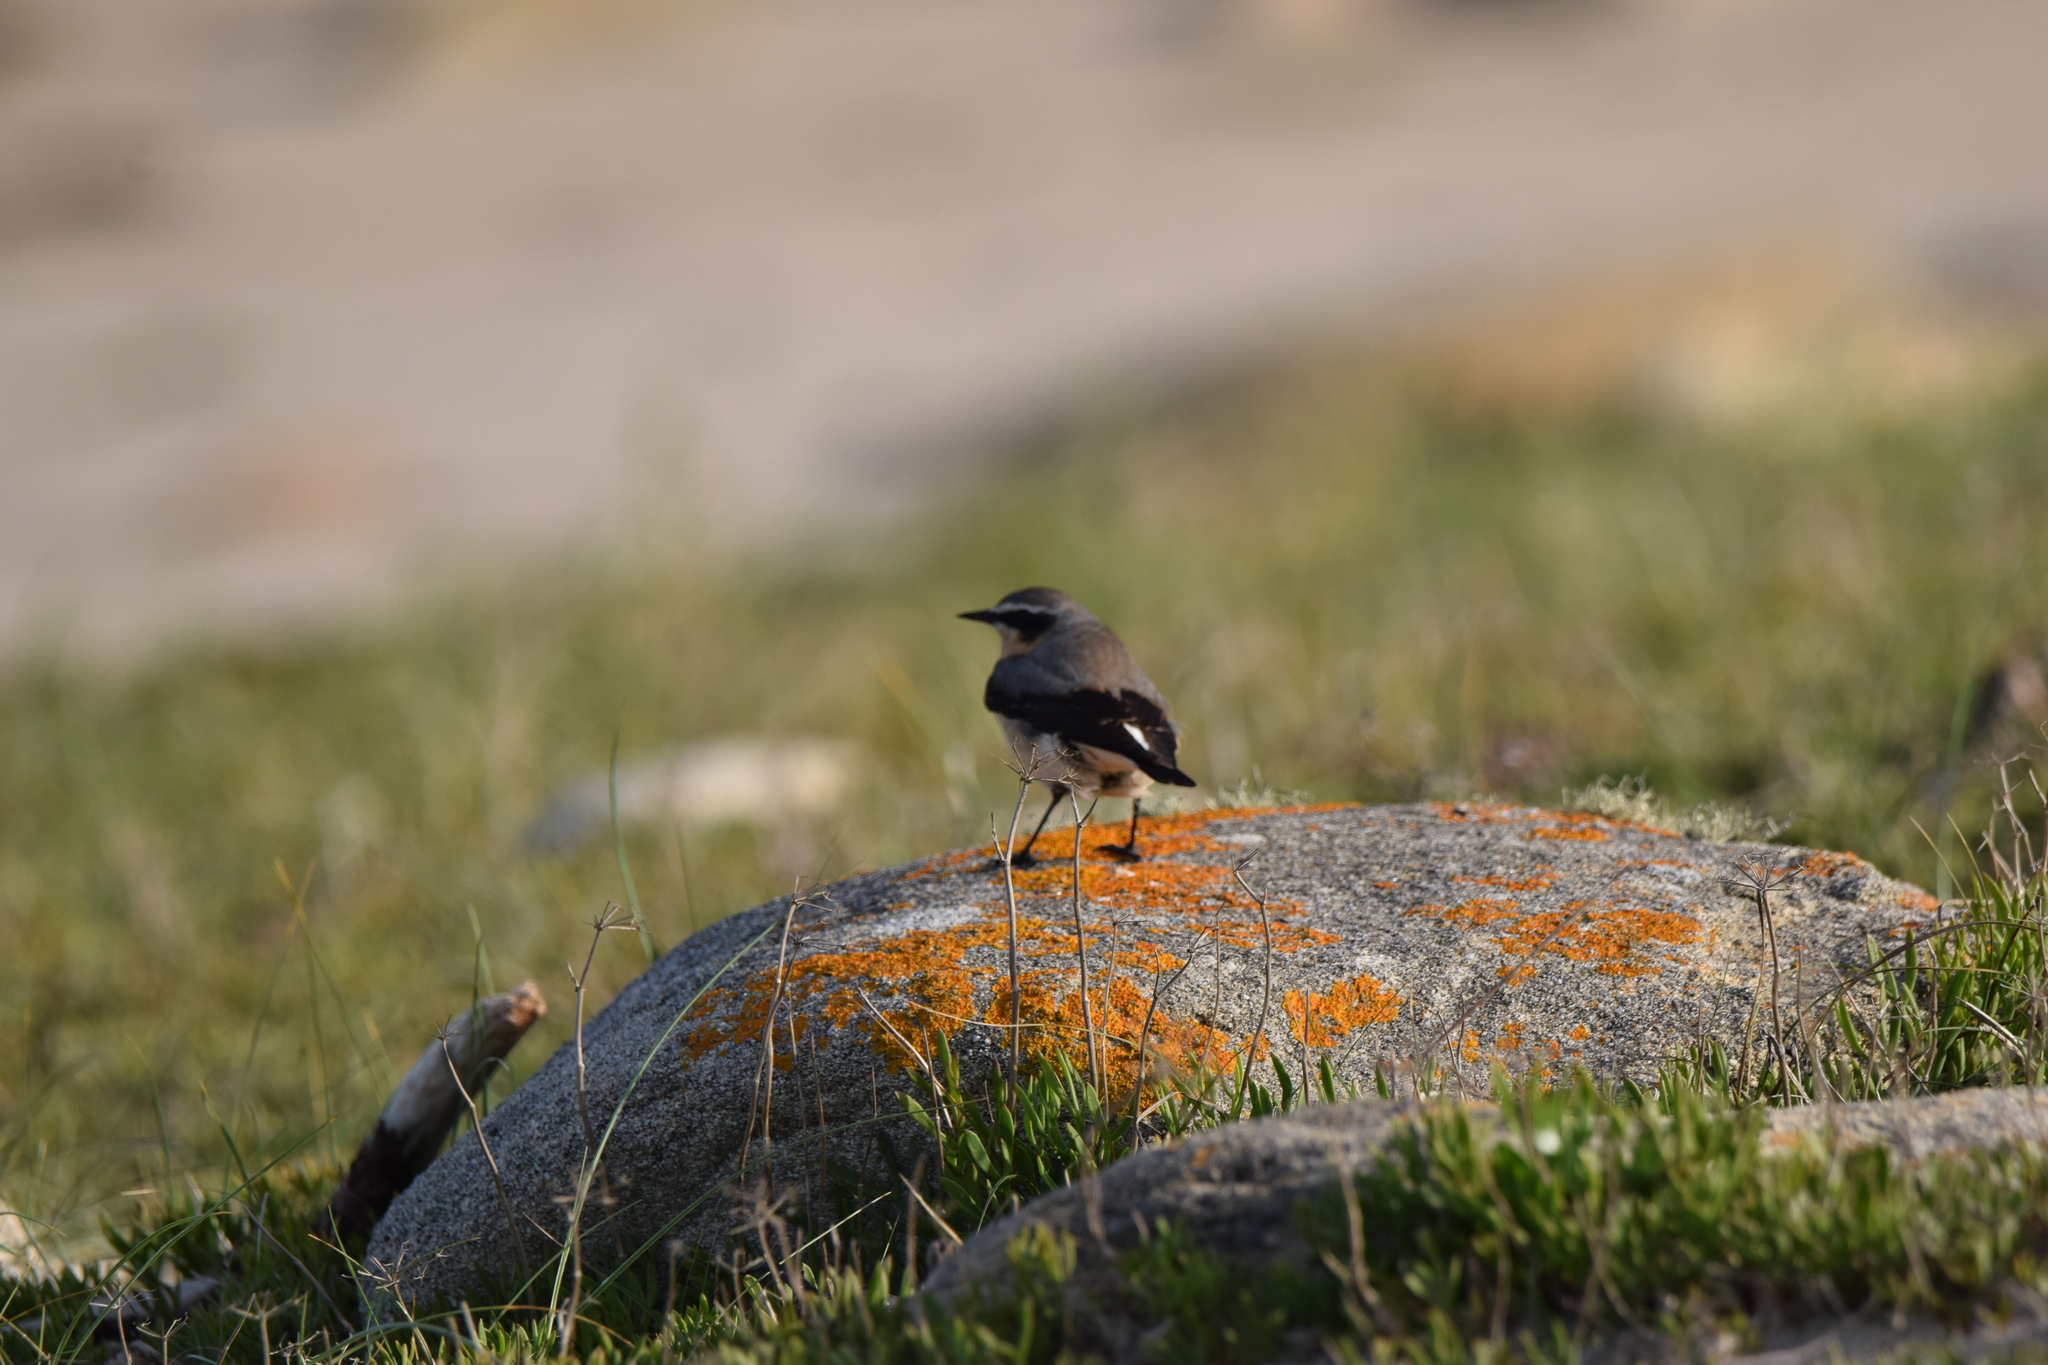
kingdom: Animalia
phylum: Chordata
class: Aves
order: Passeriformes
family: Muscicapidae
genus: Oenanthe
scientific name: Oenanthe oenanthe
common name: Northern wheatear
